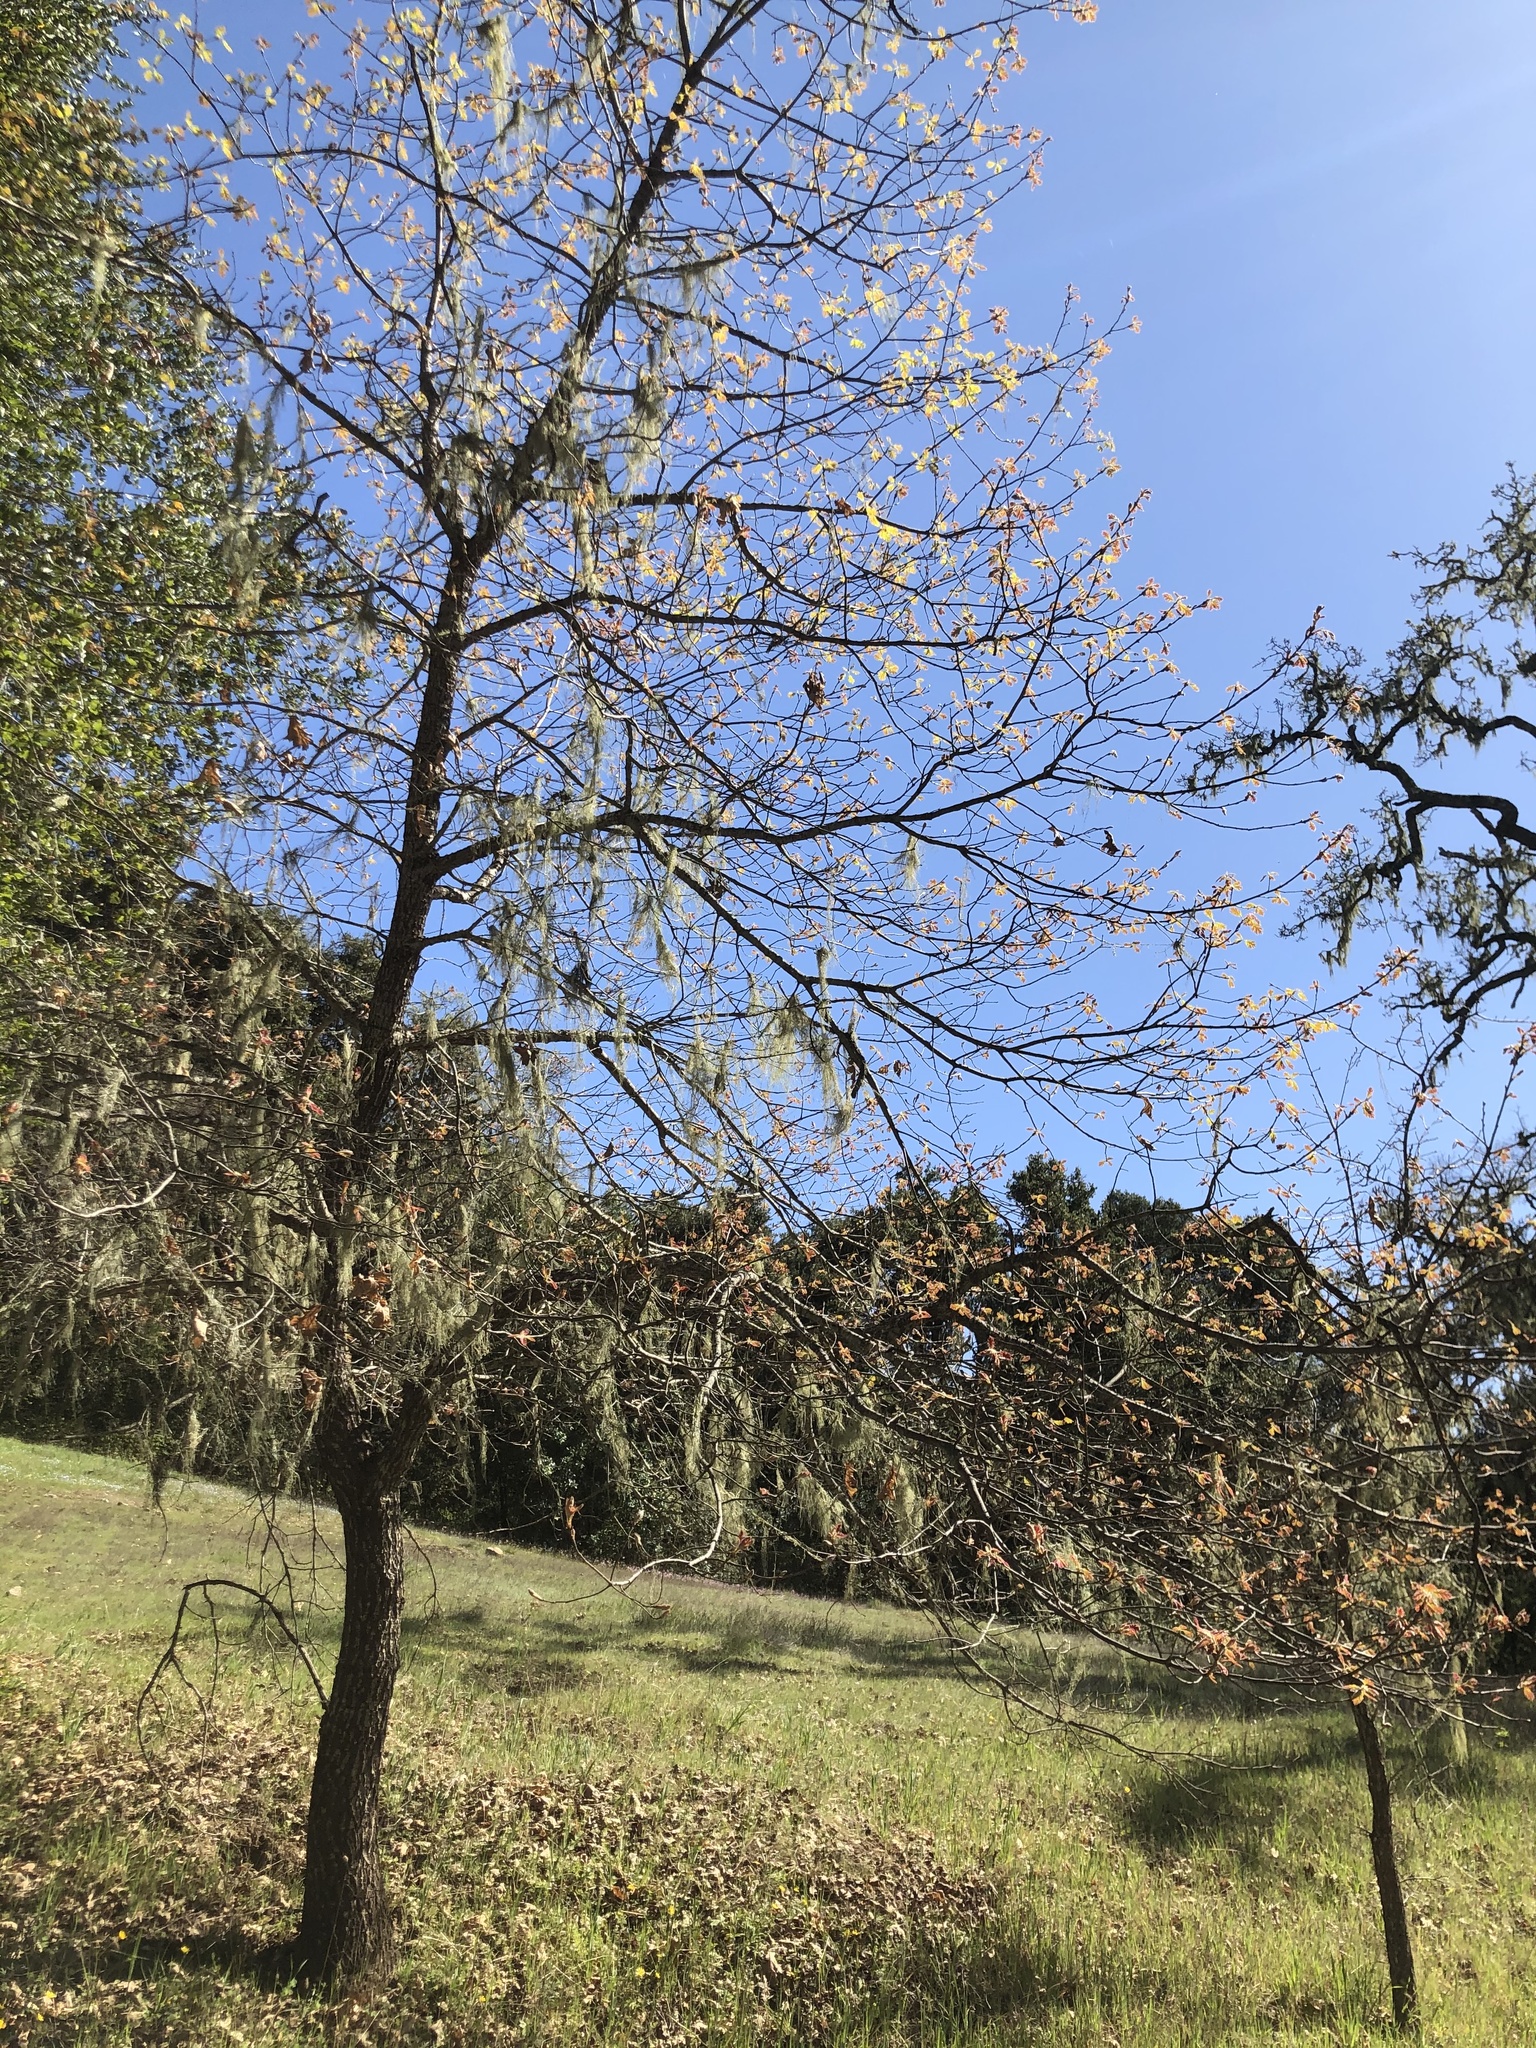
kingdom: Plantae
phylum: Tracheophyta
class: Magnoliopsida
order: Fagales
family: Fagaceae
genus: Quercus
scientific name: Quercus kelloggii
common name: California black oak
